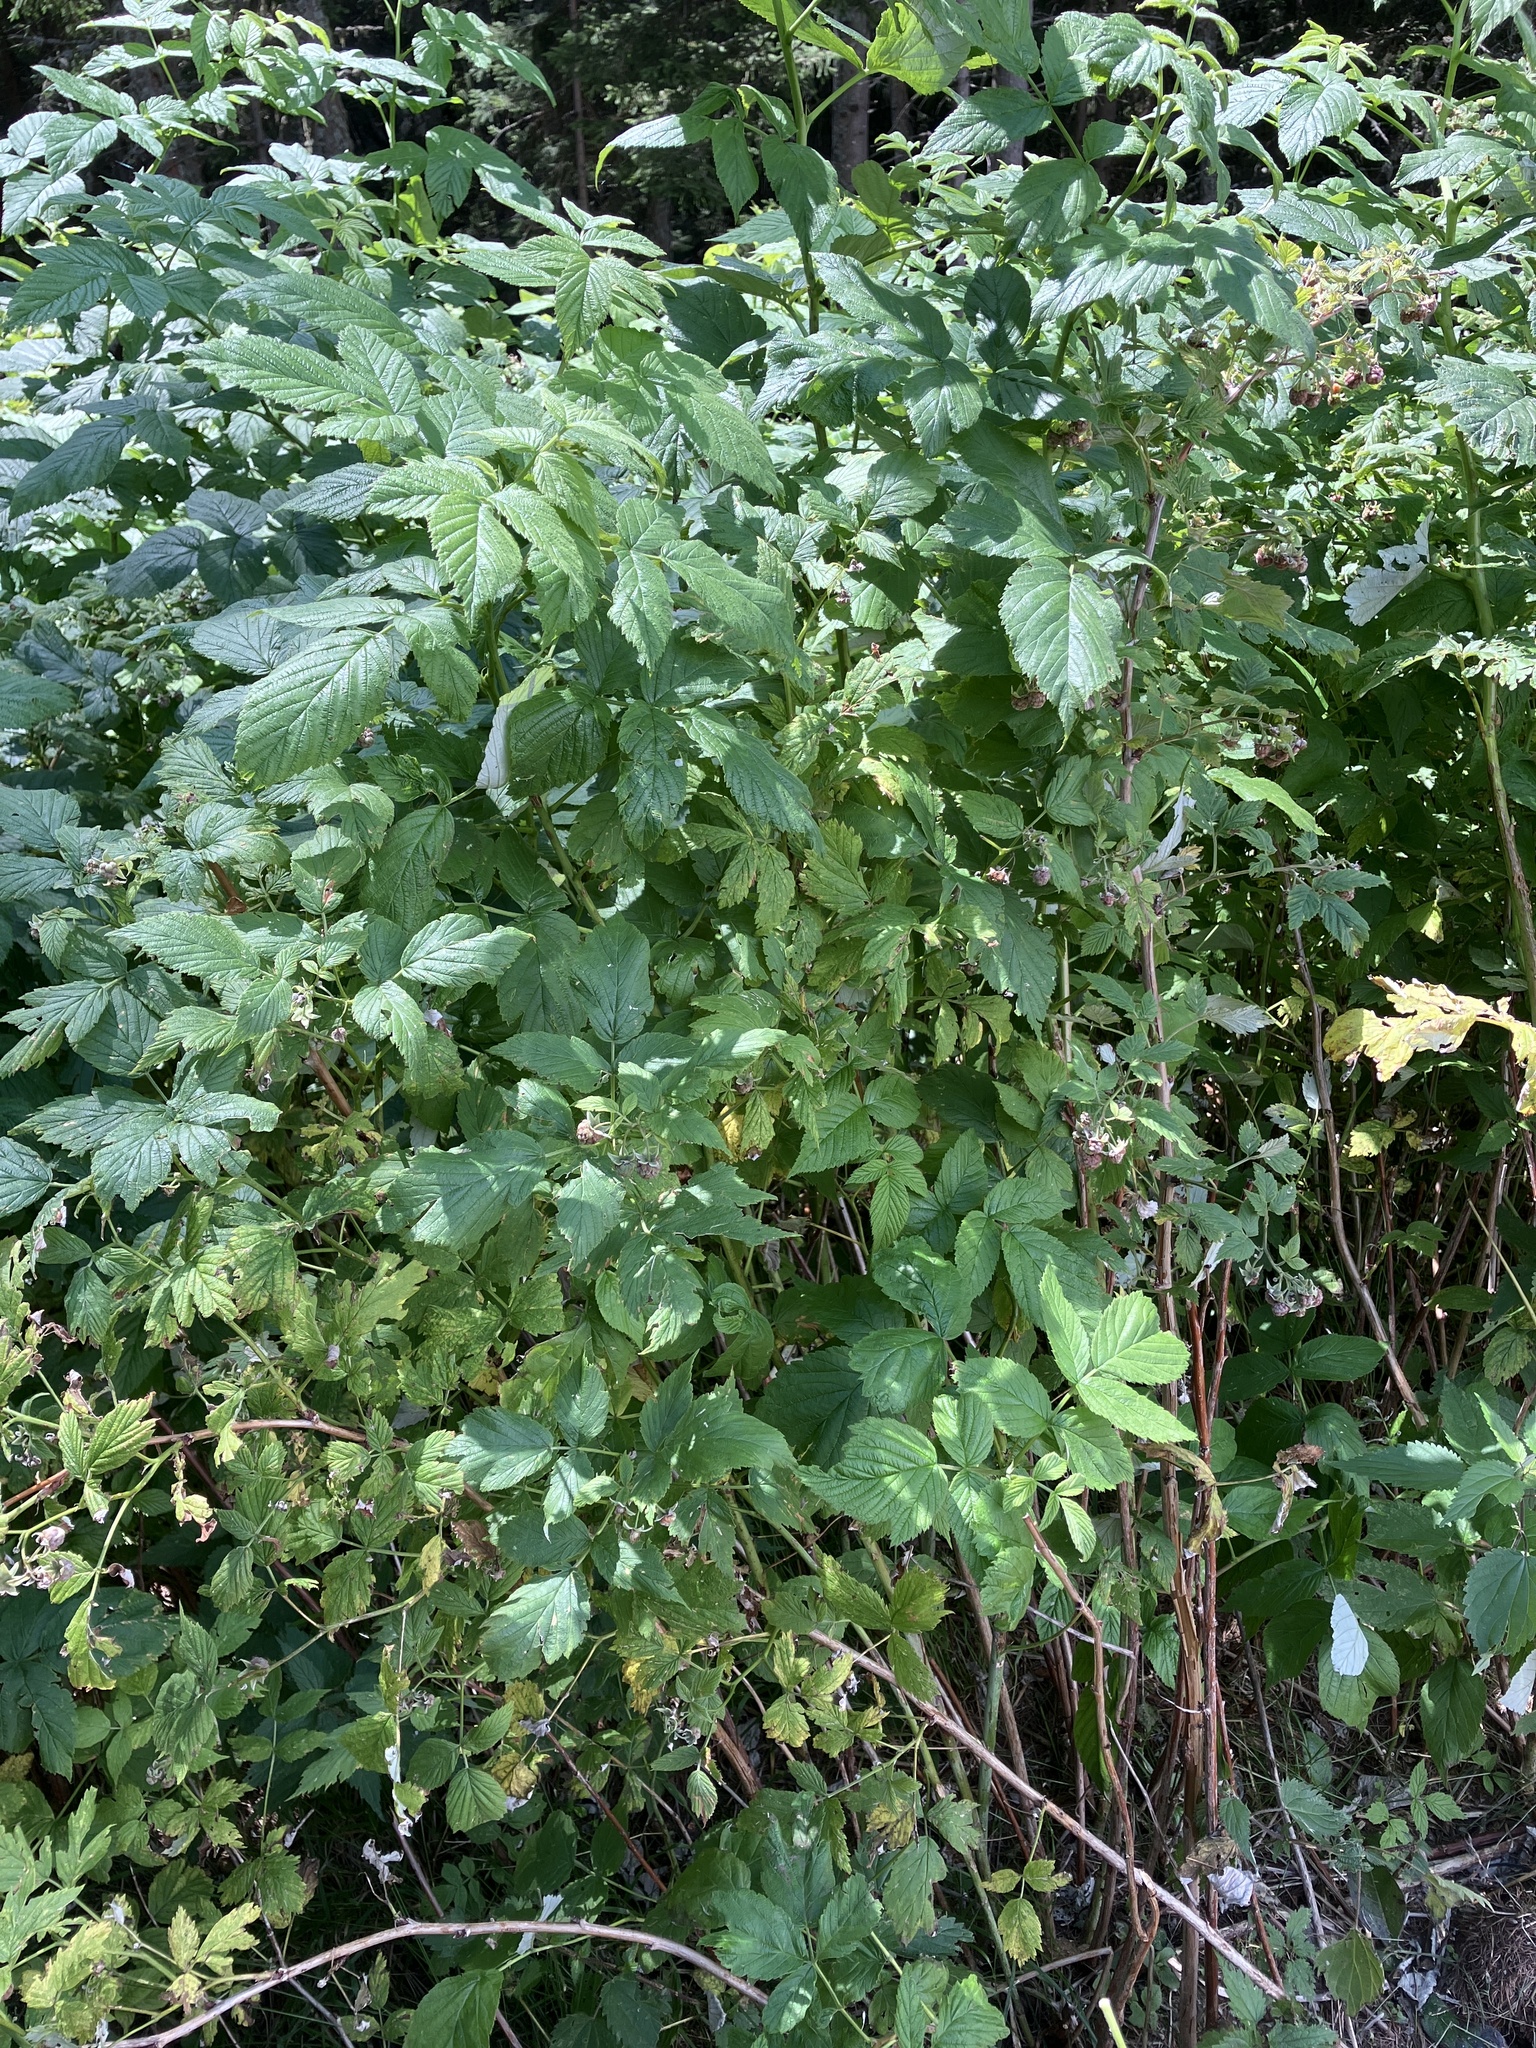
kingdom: Plantae
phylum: Tracheophyta
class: Magnoliopsida
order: Rosales
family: Rosaceae
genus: Rubus
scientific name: Rubus idaeus
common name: Raspberry
